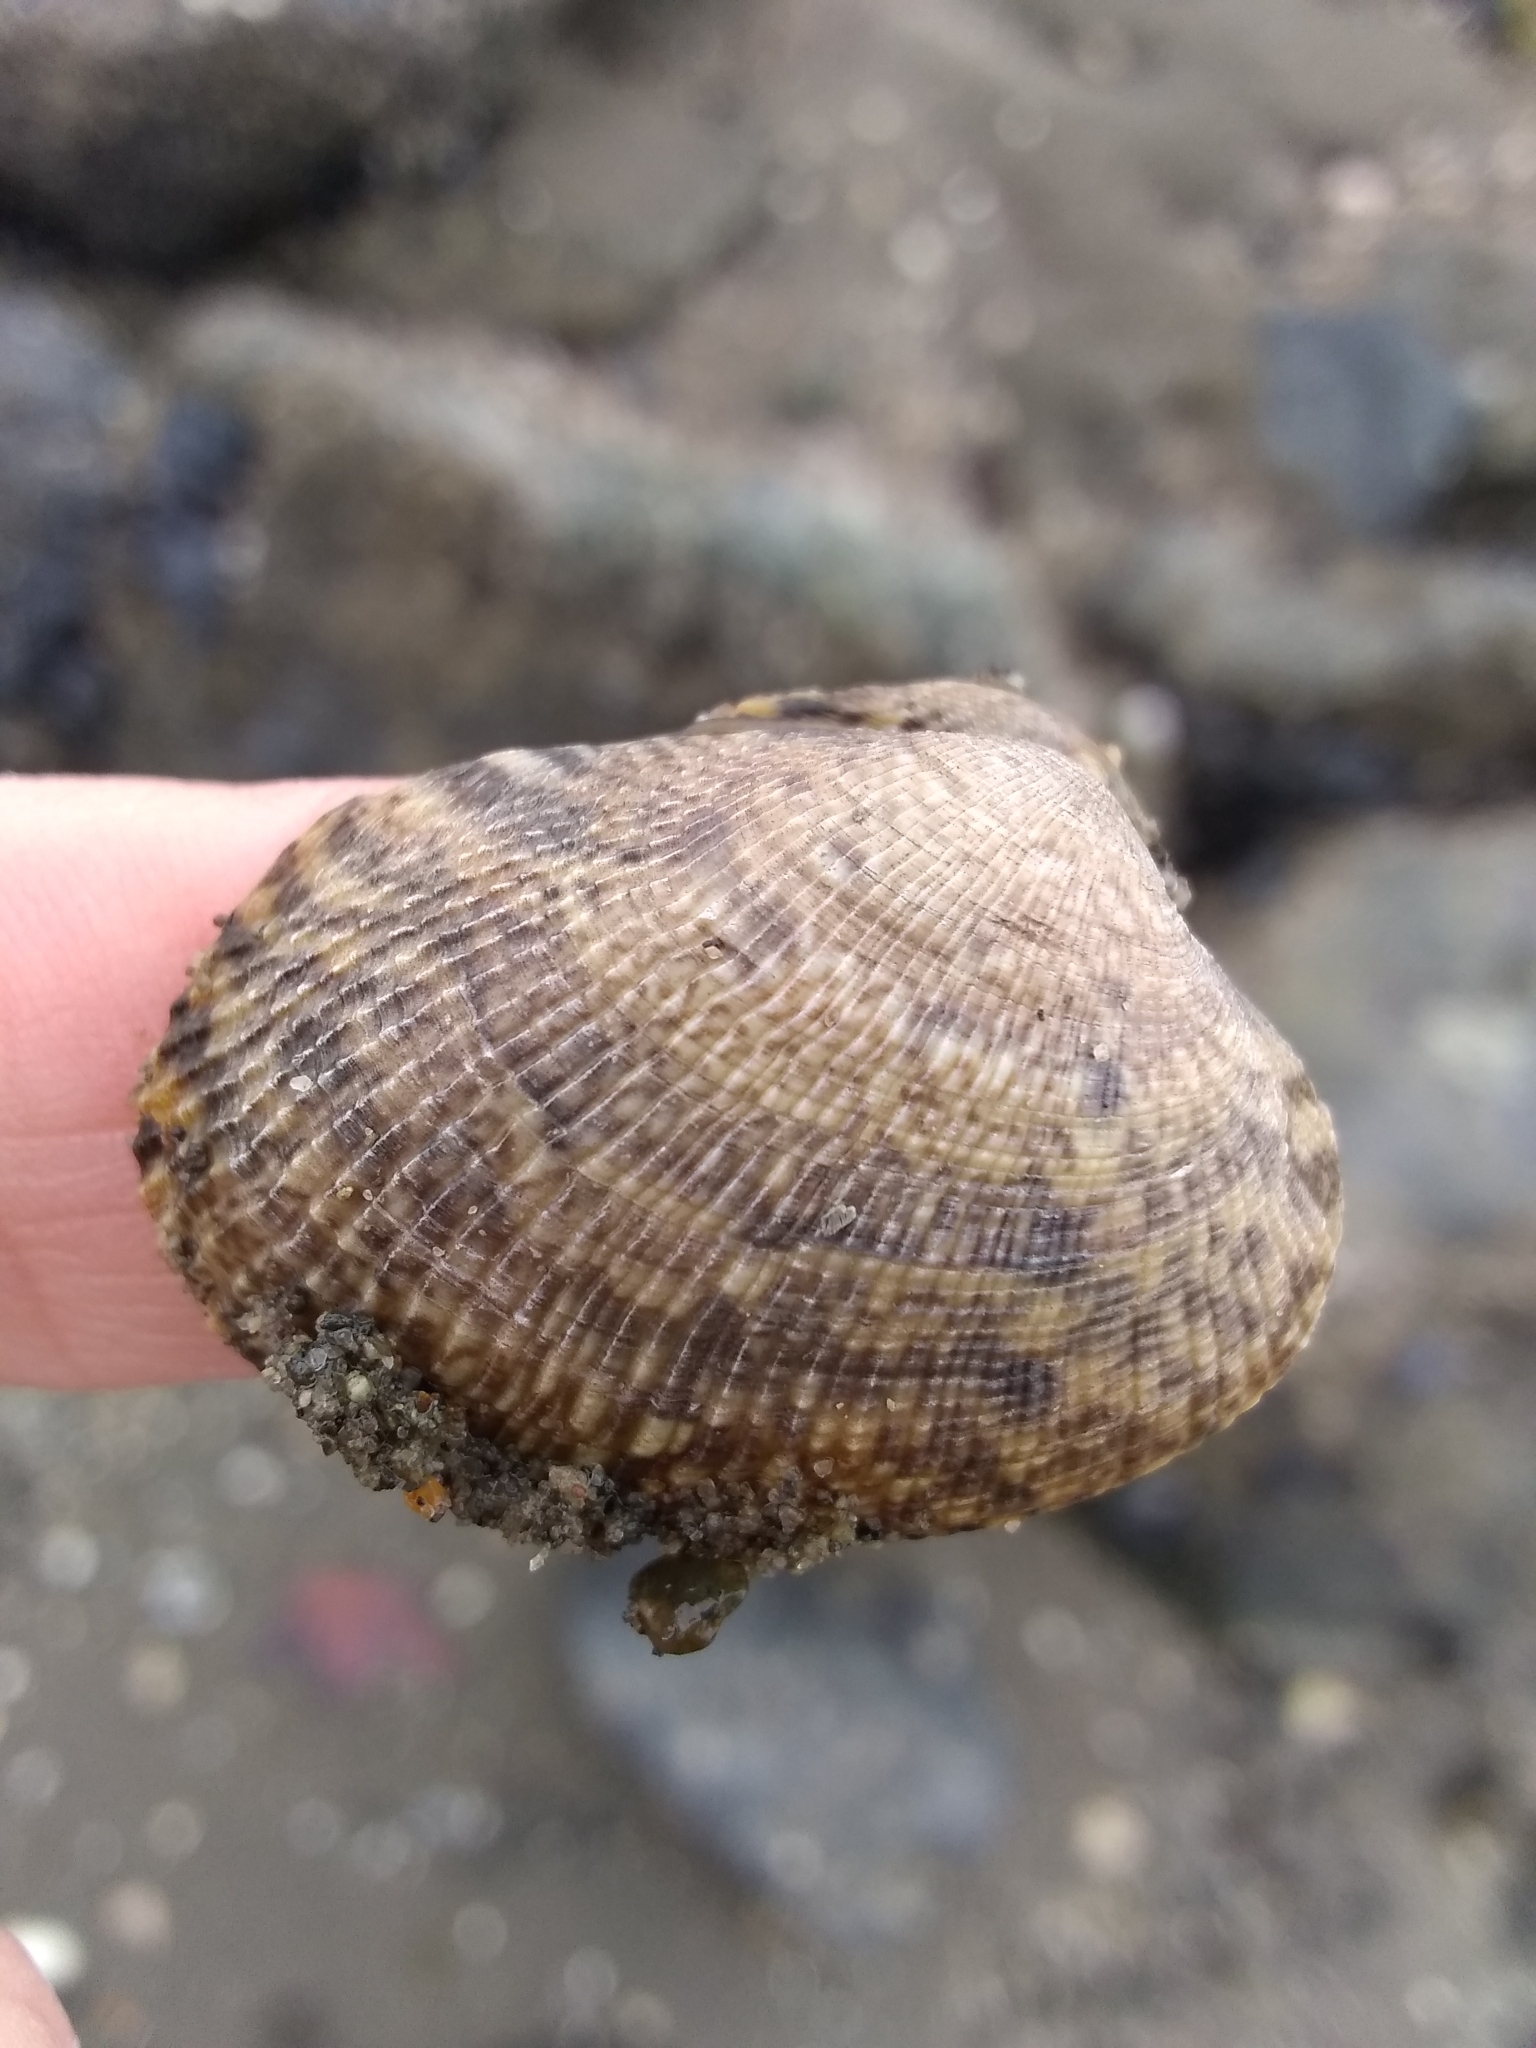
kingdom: Animalia
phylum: Mollusca
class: Bivalvia
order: Venerida
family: Veneridae
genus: Ruditapes
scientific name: Ruditapes philippinarum
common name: Manila clam
